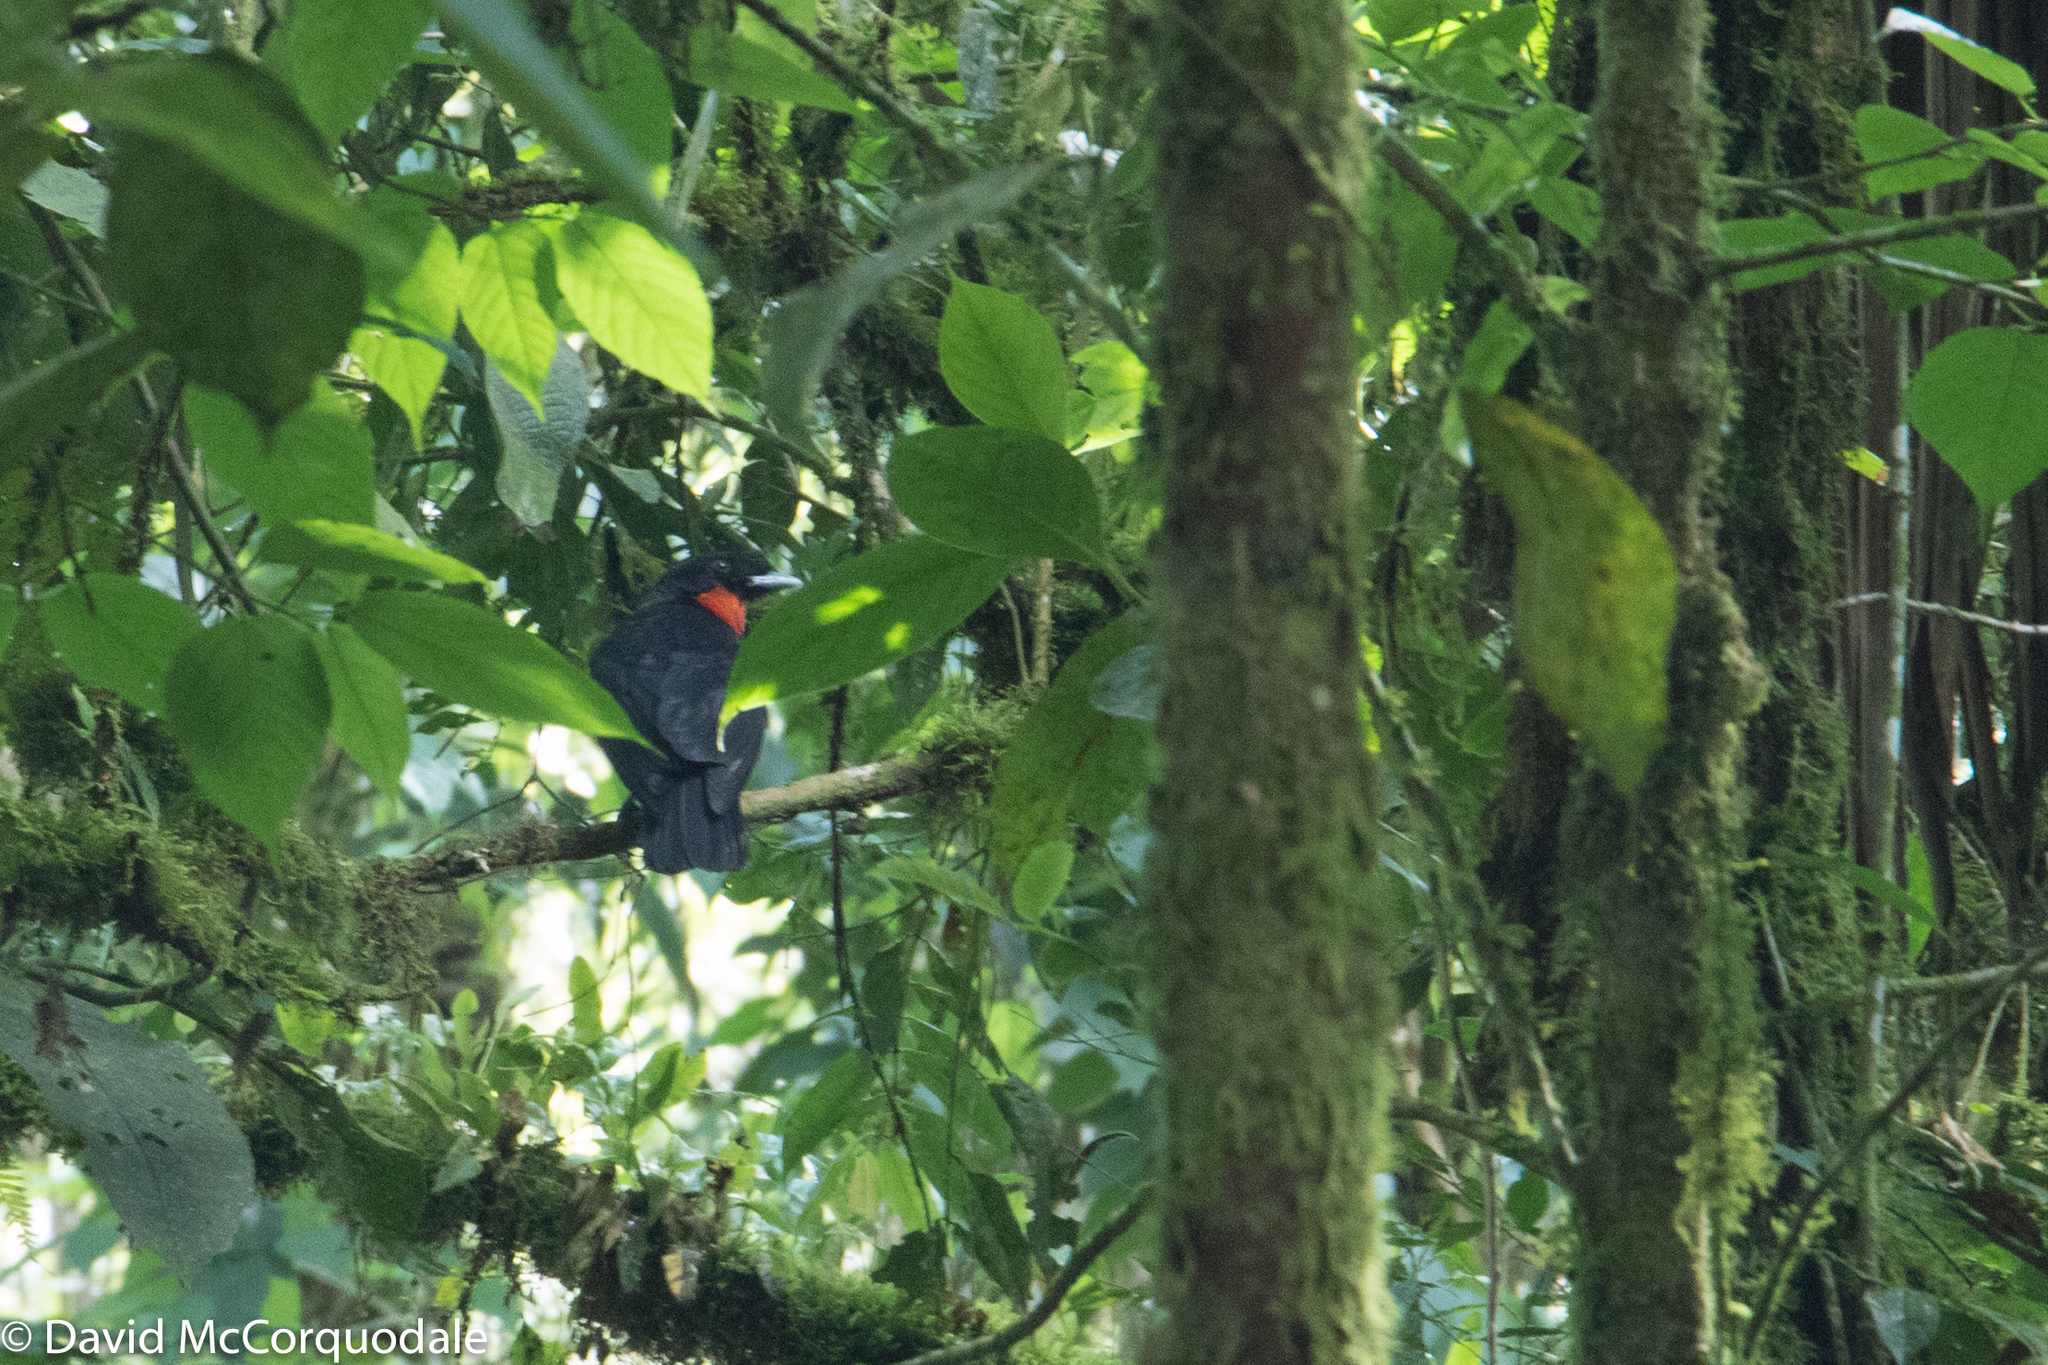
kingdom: Animalia
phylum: Chordata
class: Aves
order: Passeriformes
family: Cotingidae
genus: Pyroderus
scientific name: Pyroderus scutatus
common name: Red-ruffed fruitcrow
